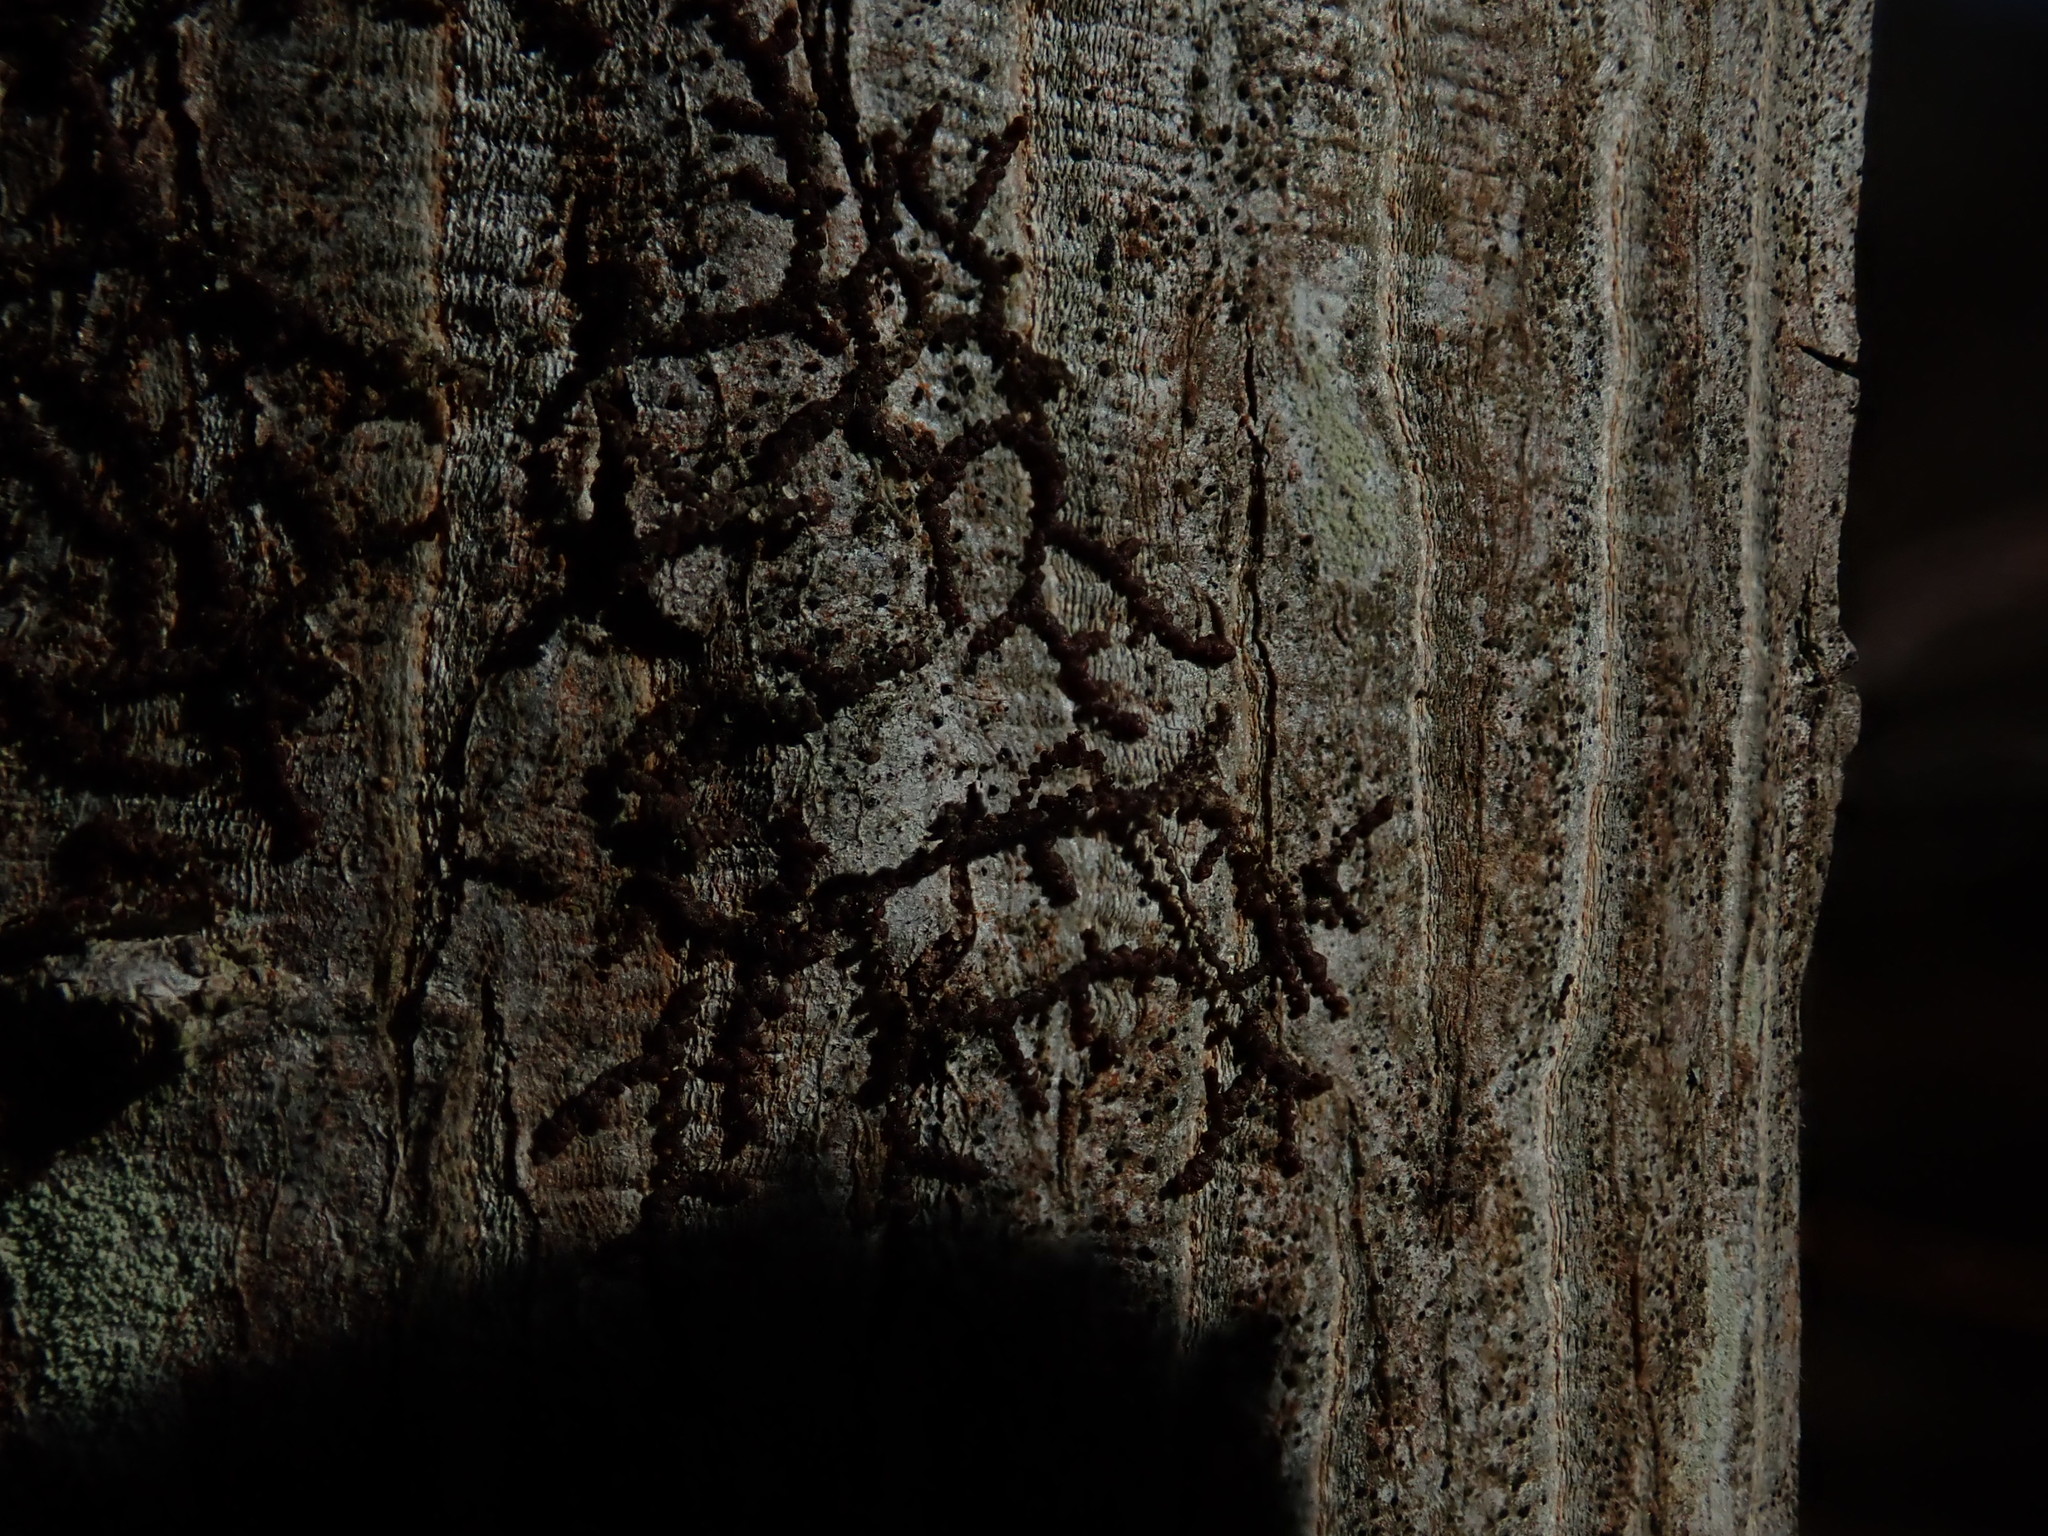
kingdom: Plantae
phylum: Marchantiophyta
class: Jungermanniopsida
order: Porellales
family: Frullaniaceae
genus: Frullania
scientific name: Frullania
